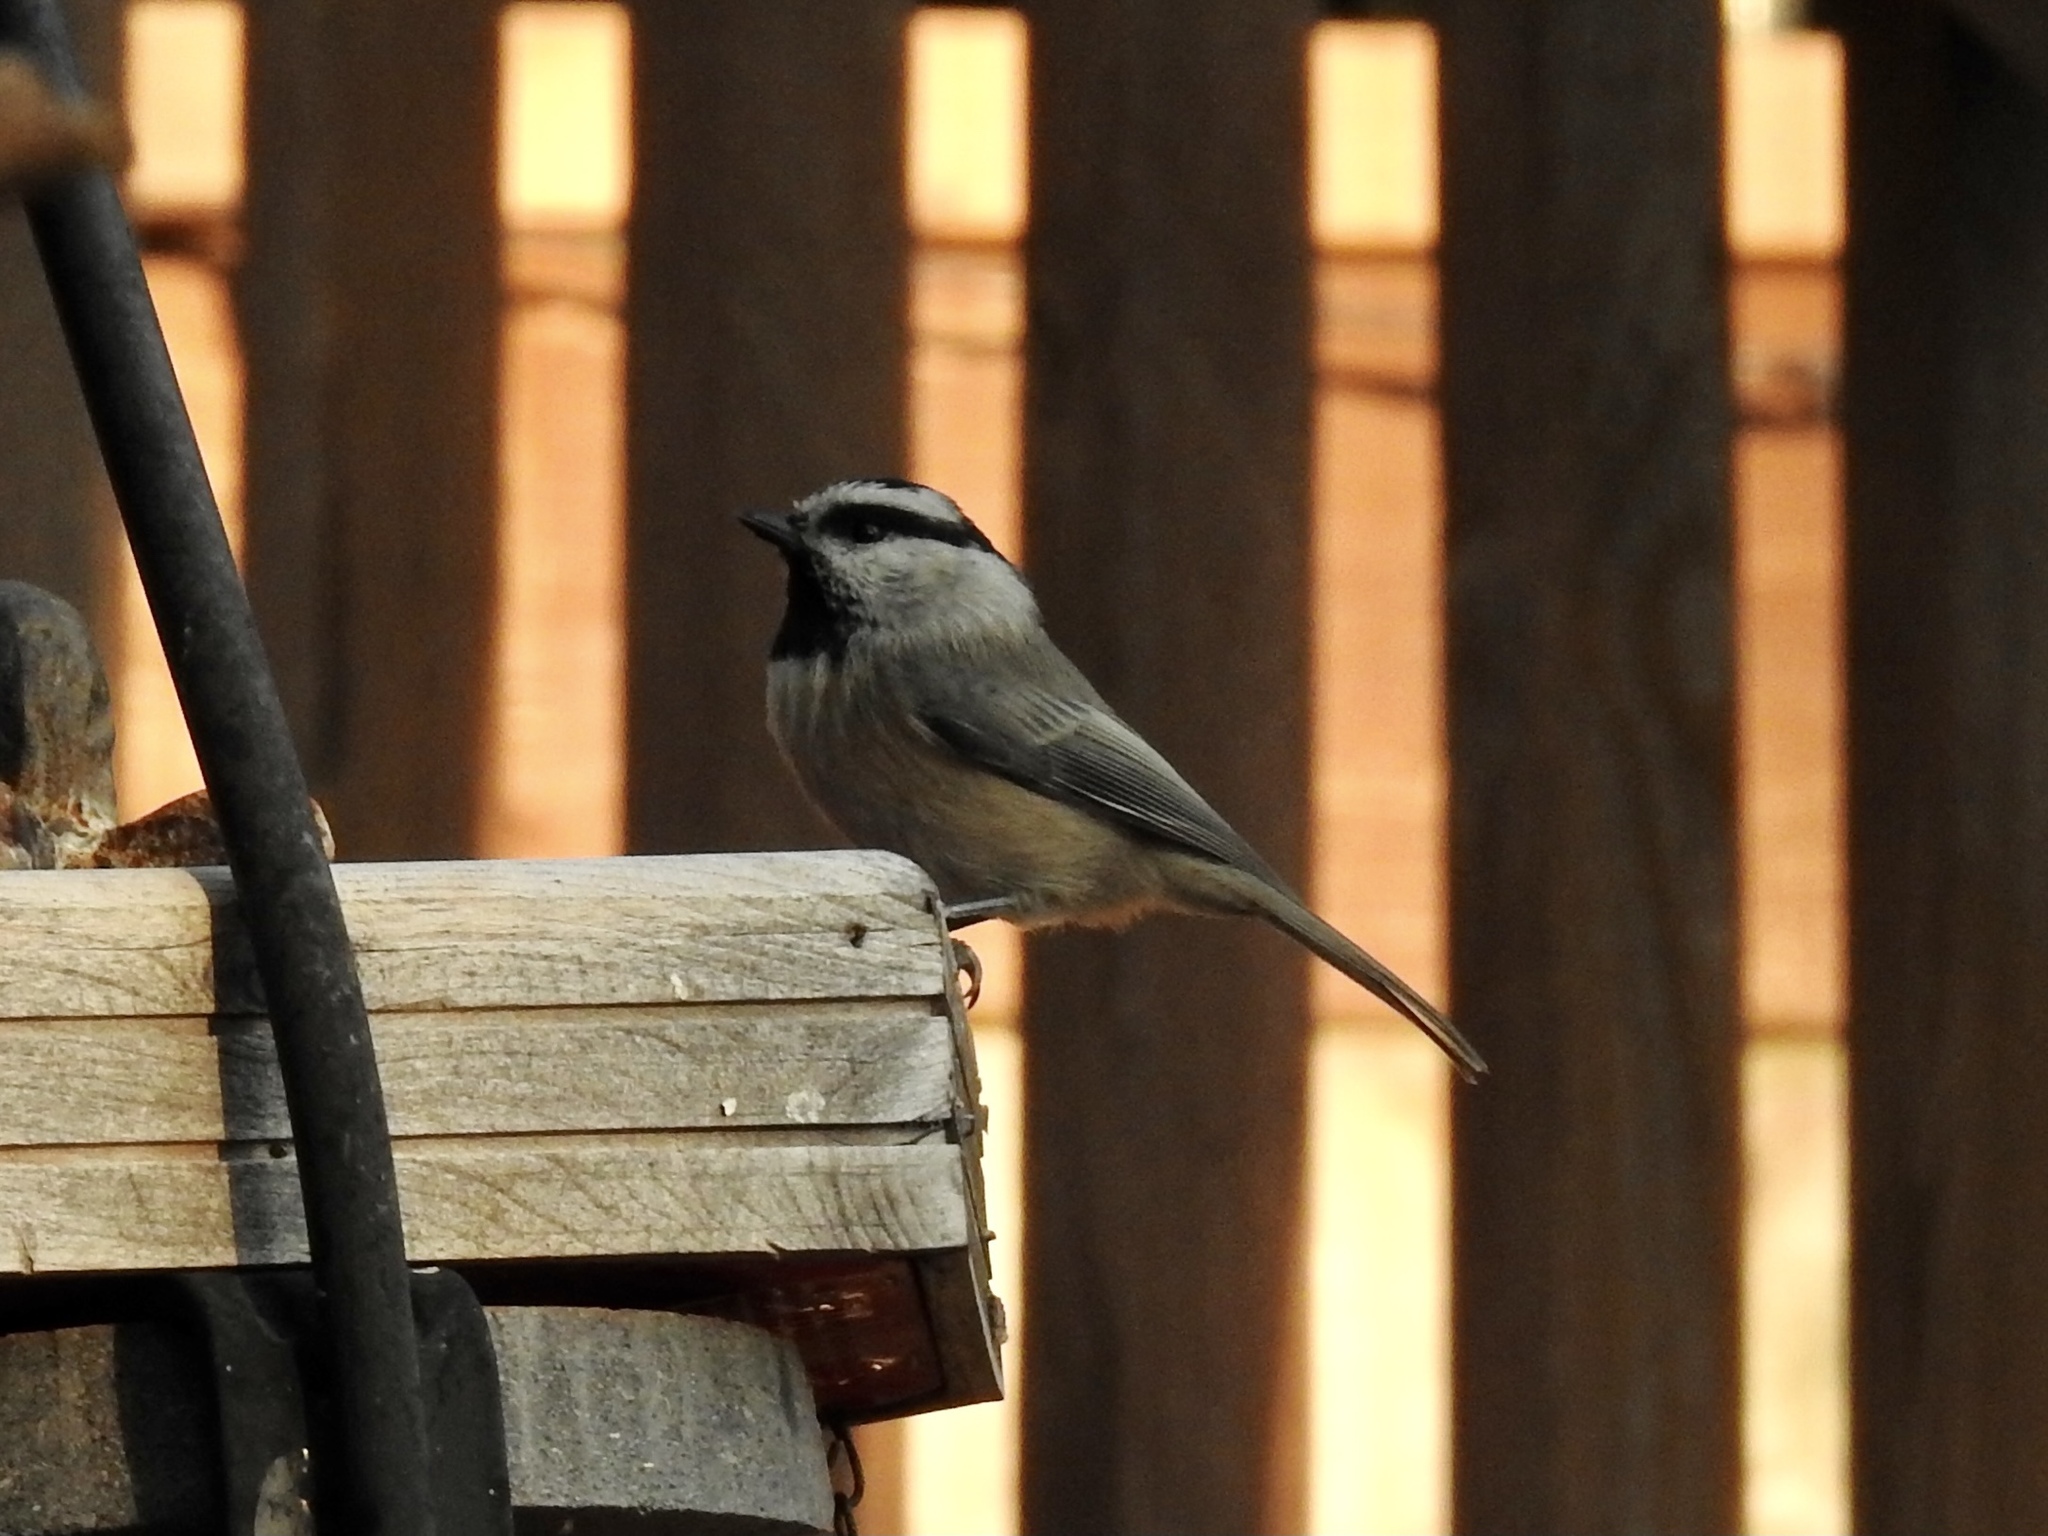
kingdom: Animalia
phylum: Chordata
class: Aves
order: Passeriformes
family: Paridae
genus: Poecile
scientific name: Poecile gambeli
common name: Mountain chickadee
